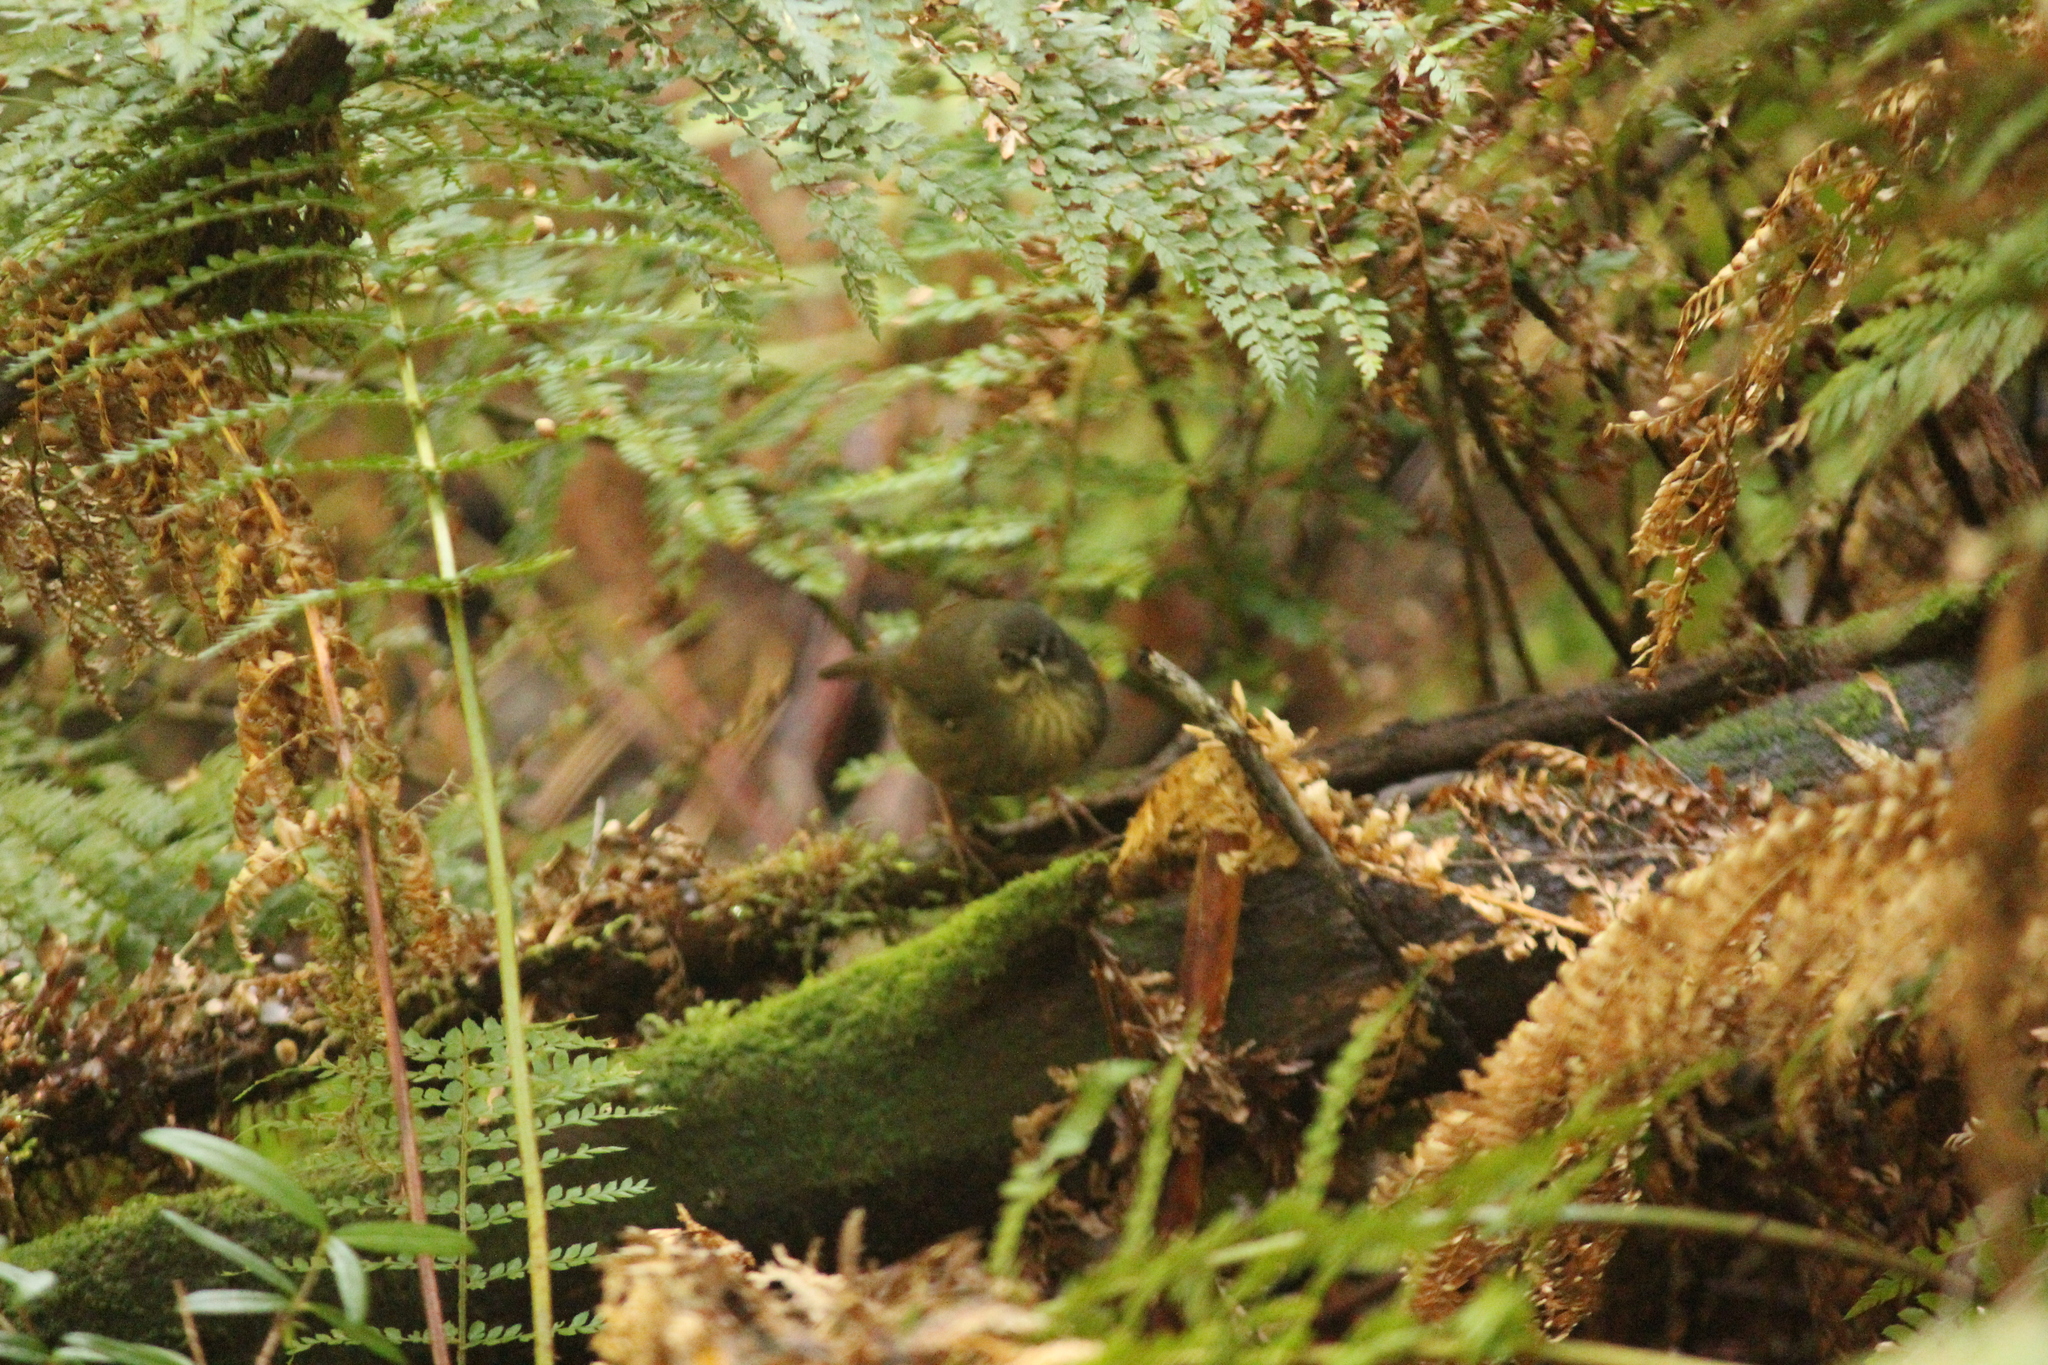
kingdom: Animalia
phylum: Chordata
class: Aves
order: Passeriformes
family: Acanthizidae
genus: Sericornis
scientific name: Sericornis humilis
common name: Tasmanian scrubwren
